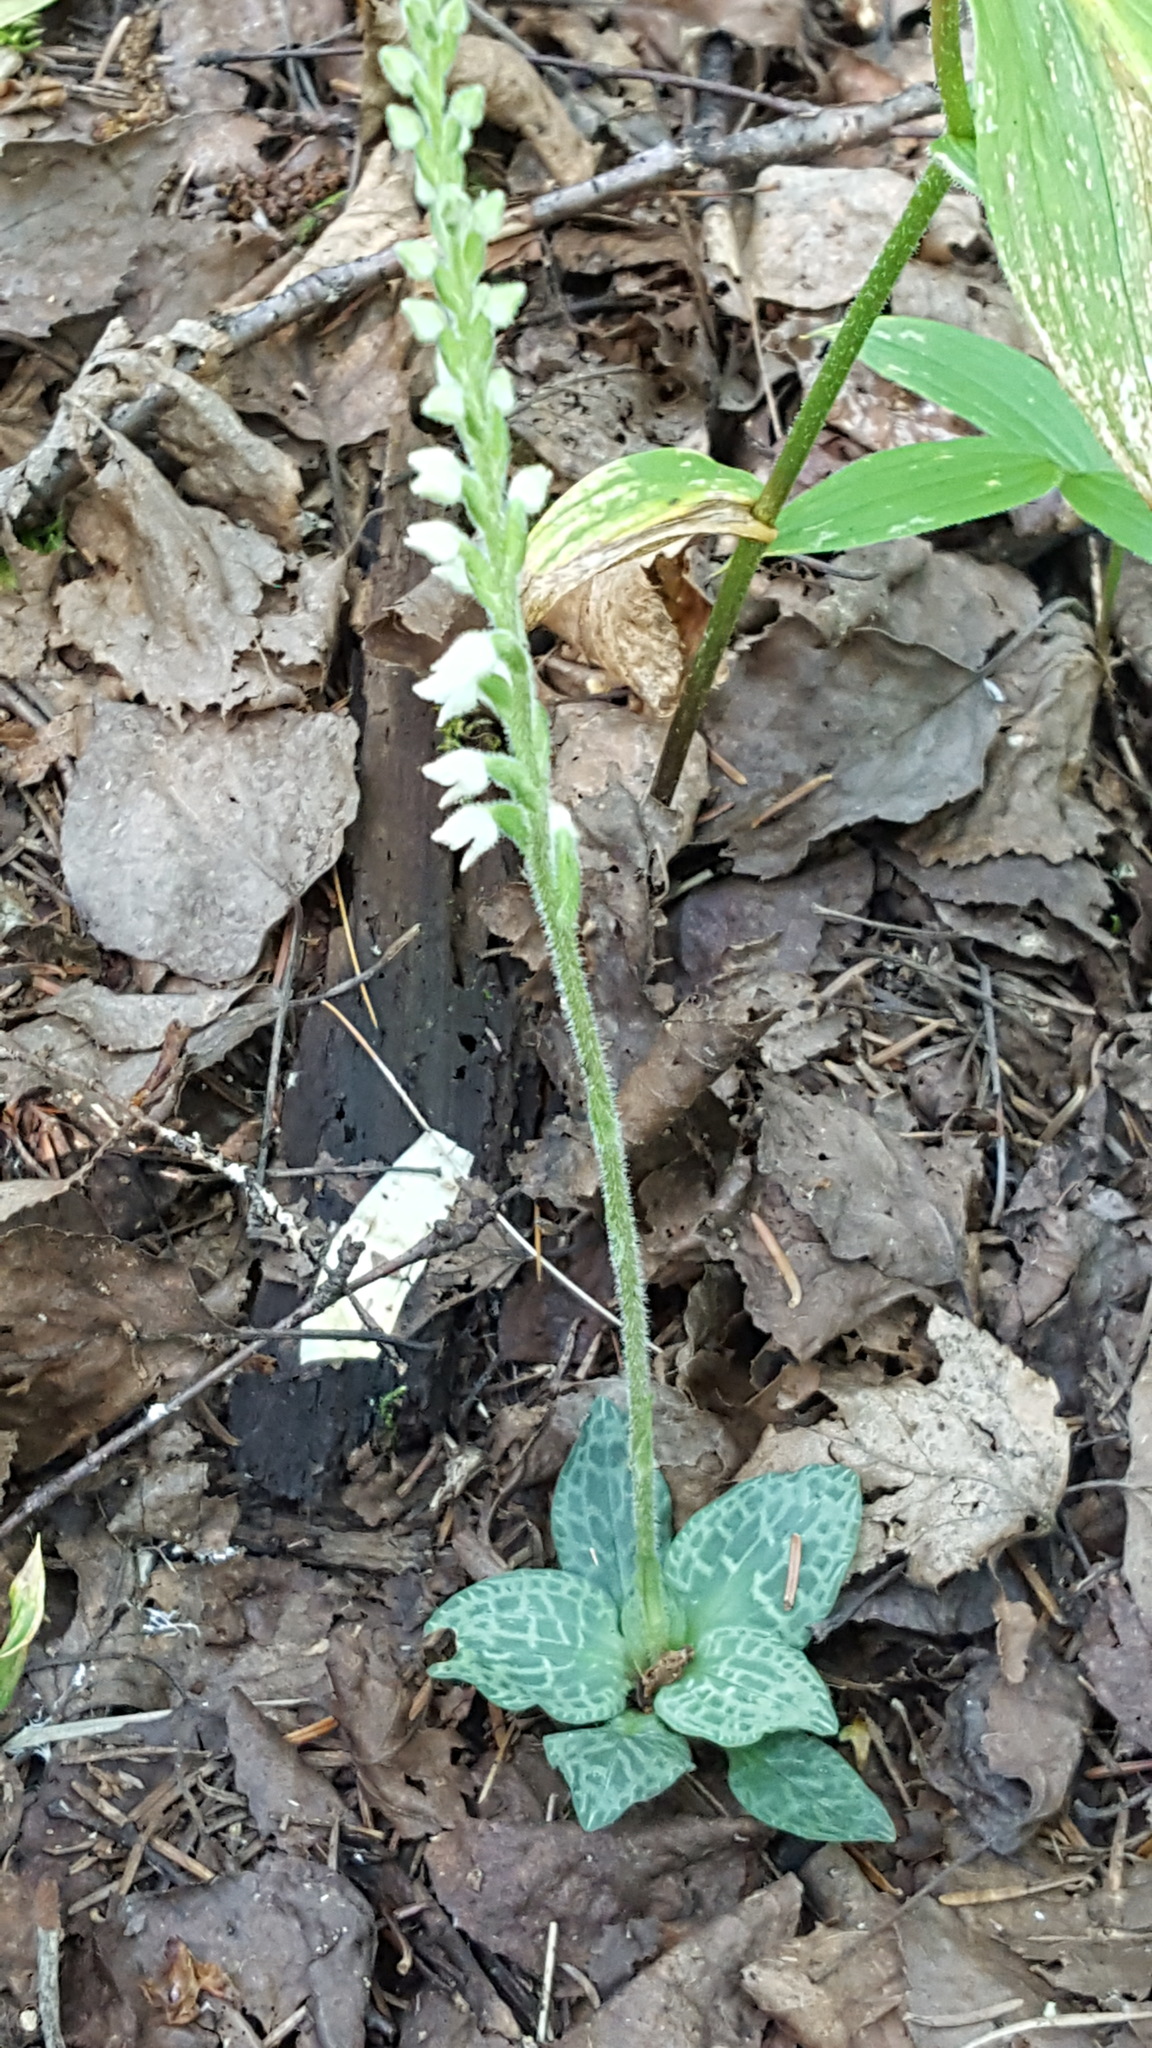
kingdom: Plantae
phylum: Tracheophyta
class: Liliopsida
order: Asparagales
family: Orchidaceae
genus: Goodyera
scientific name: Goodyera repens
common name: Creeping lady's-tresses
